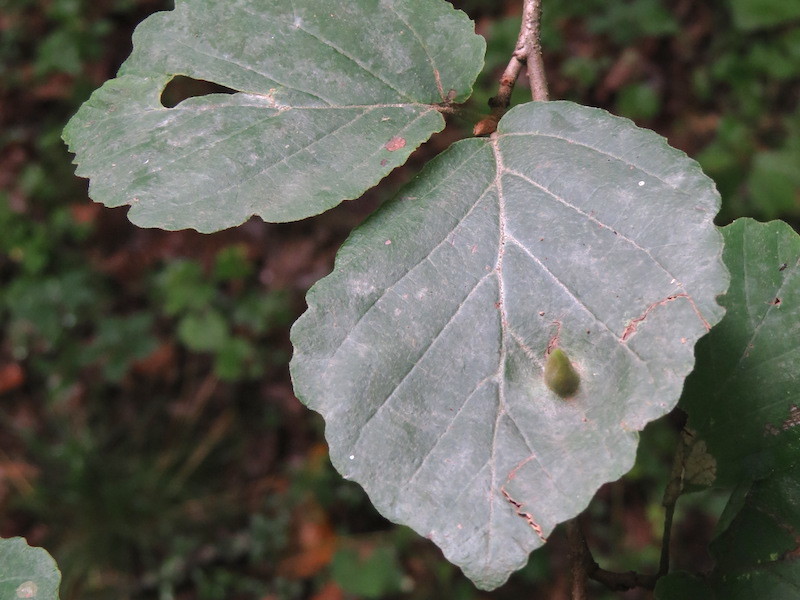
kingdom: Animalia
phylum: Arthropoda
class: Insecta
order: Hemiptera
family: Aphididae
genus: Hormaphis
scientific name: Hormaphis hamamelidis
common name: Witch-hazel cone gall aphid
